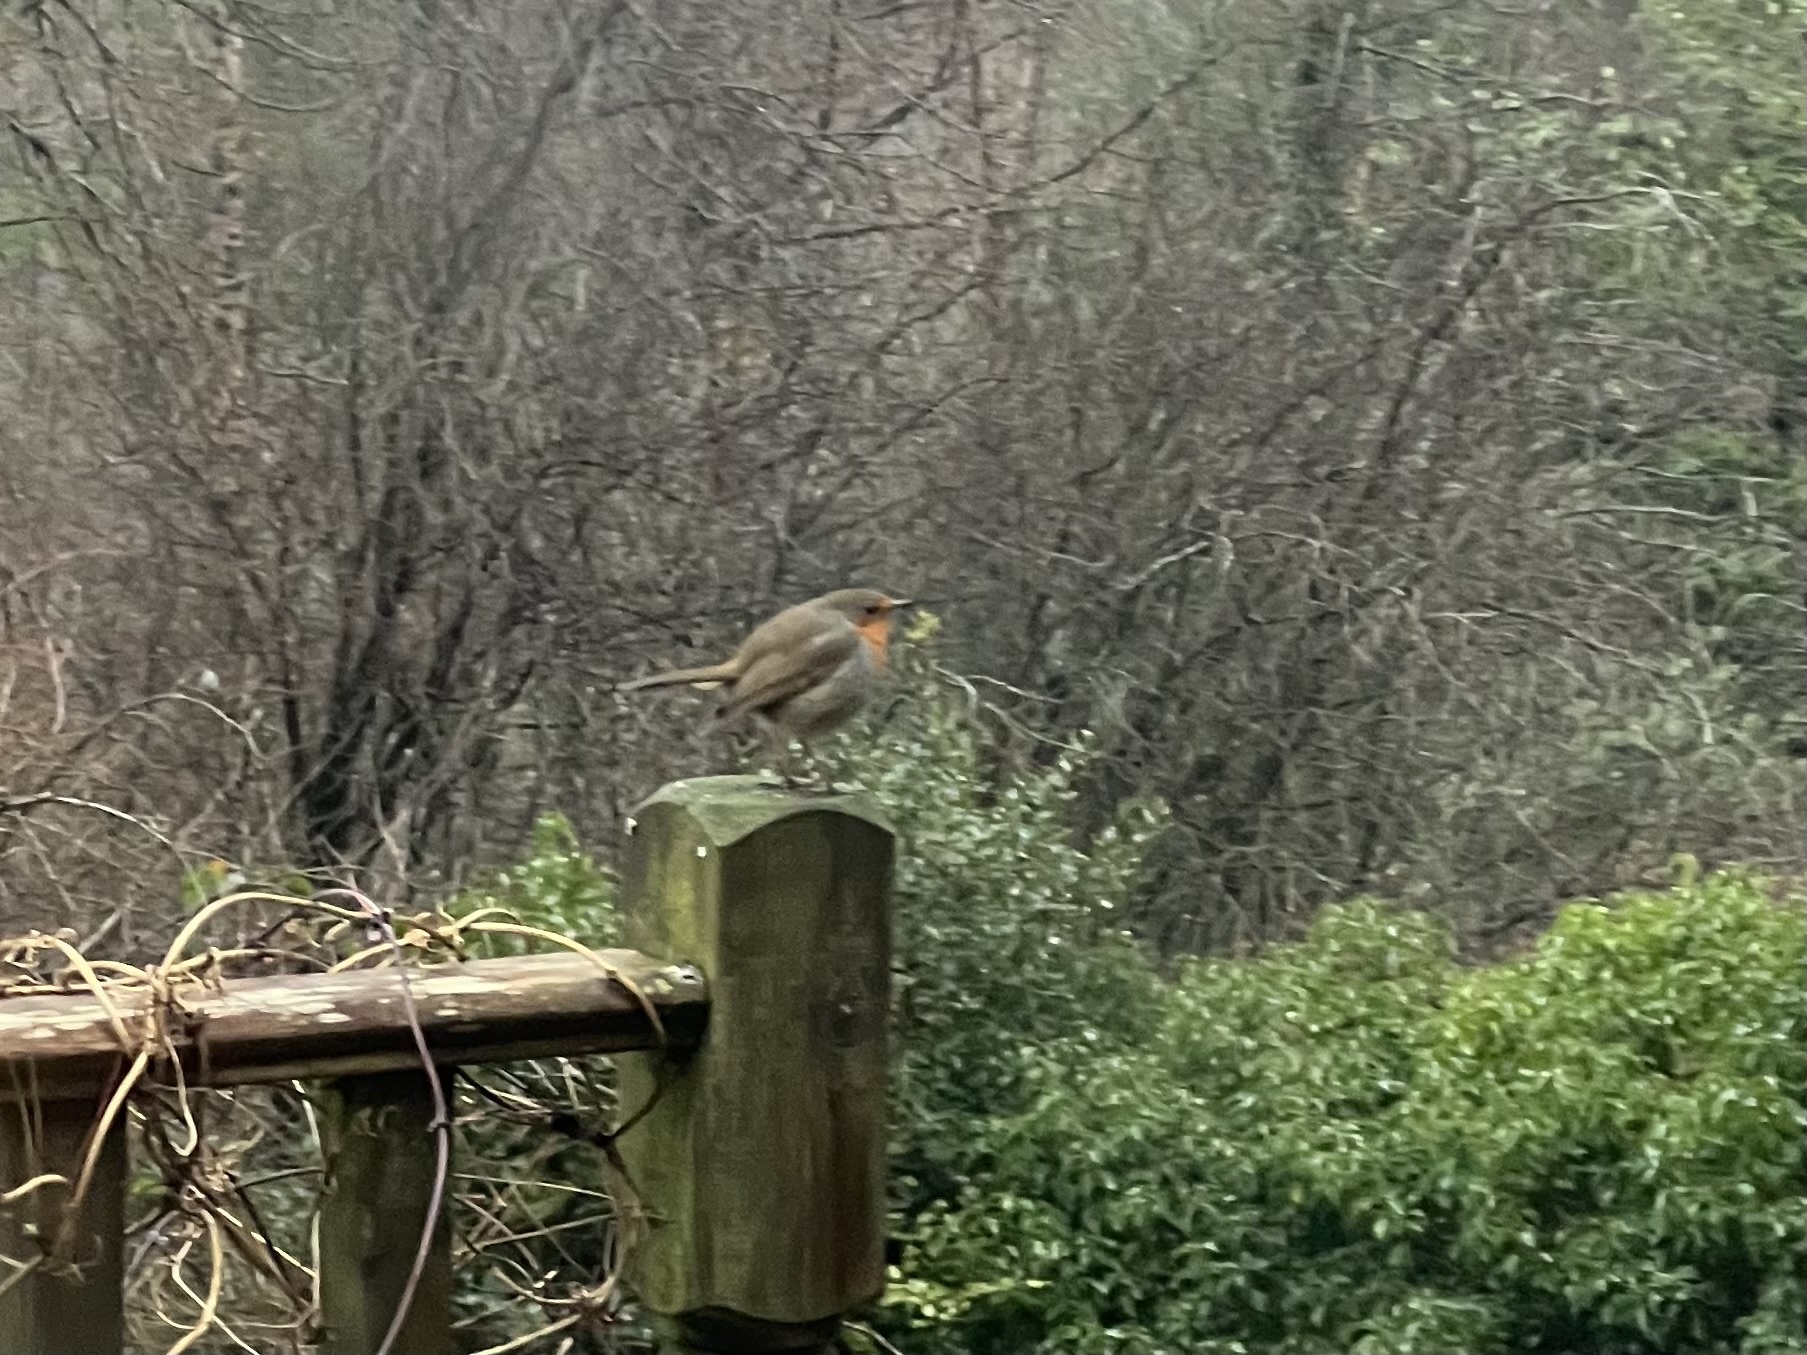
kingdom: Animalia
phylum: Chordata
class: Aves
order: Passeriformes
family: Muscicapidae
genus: Erithacus
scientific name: Erithacus rubecula
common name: European robin
